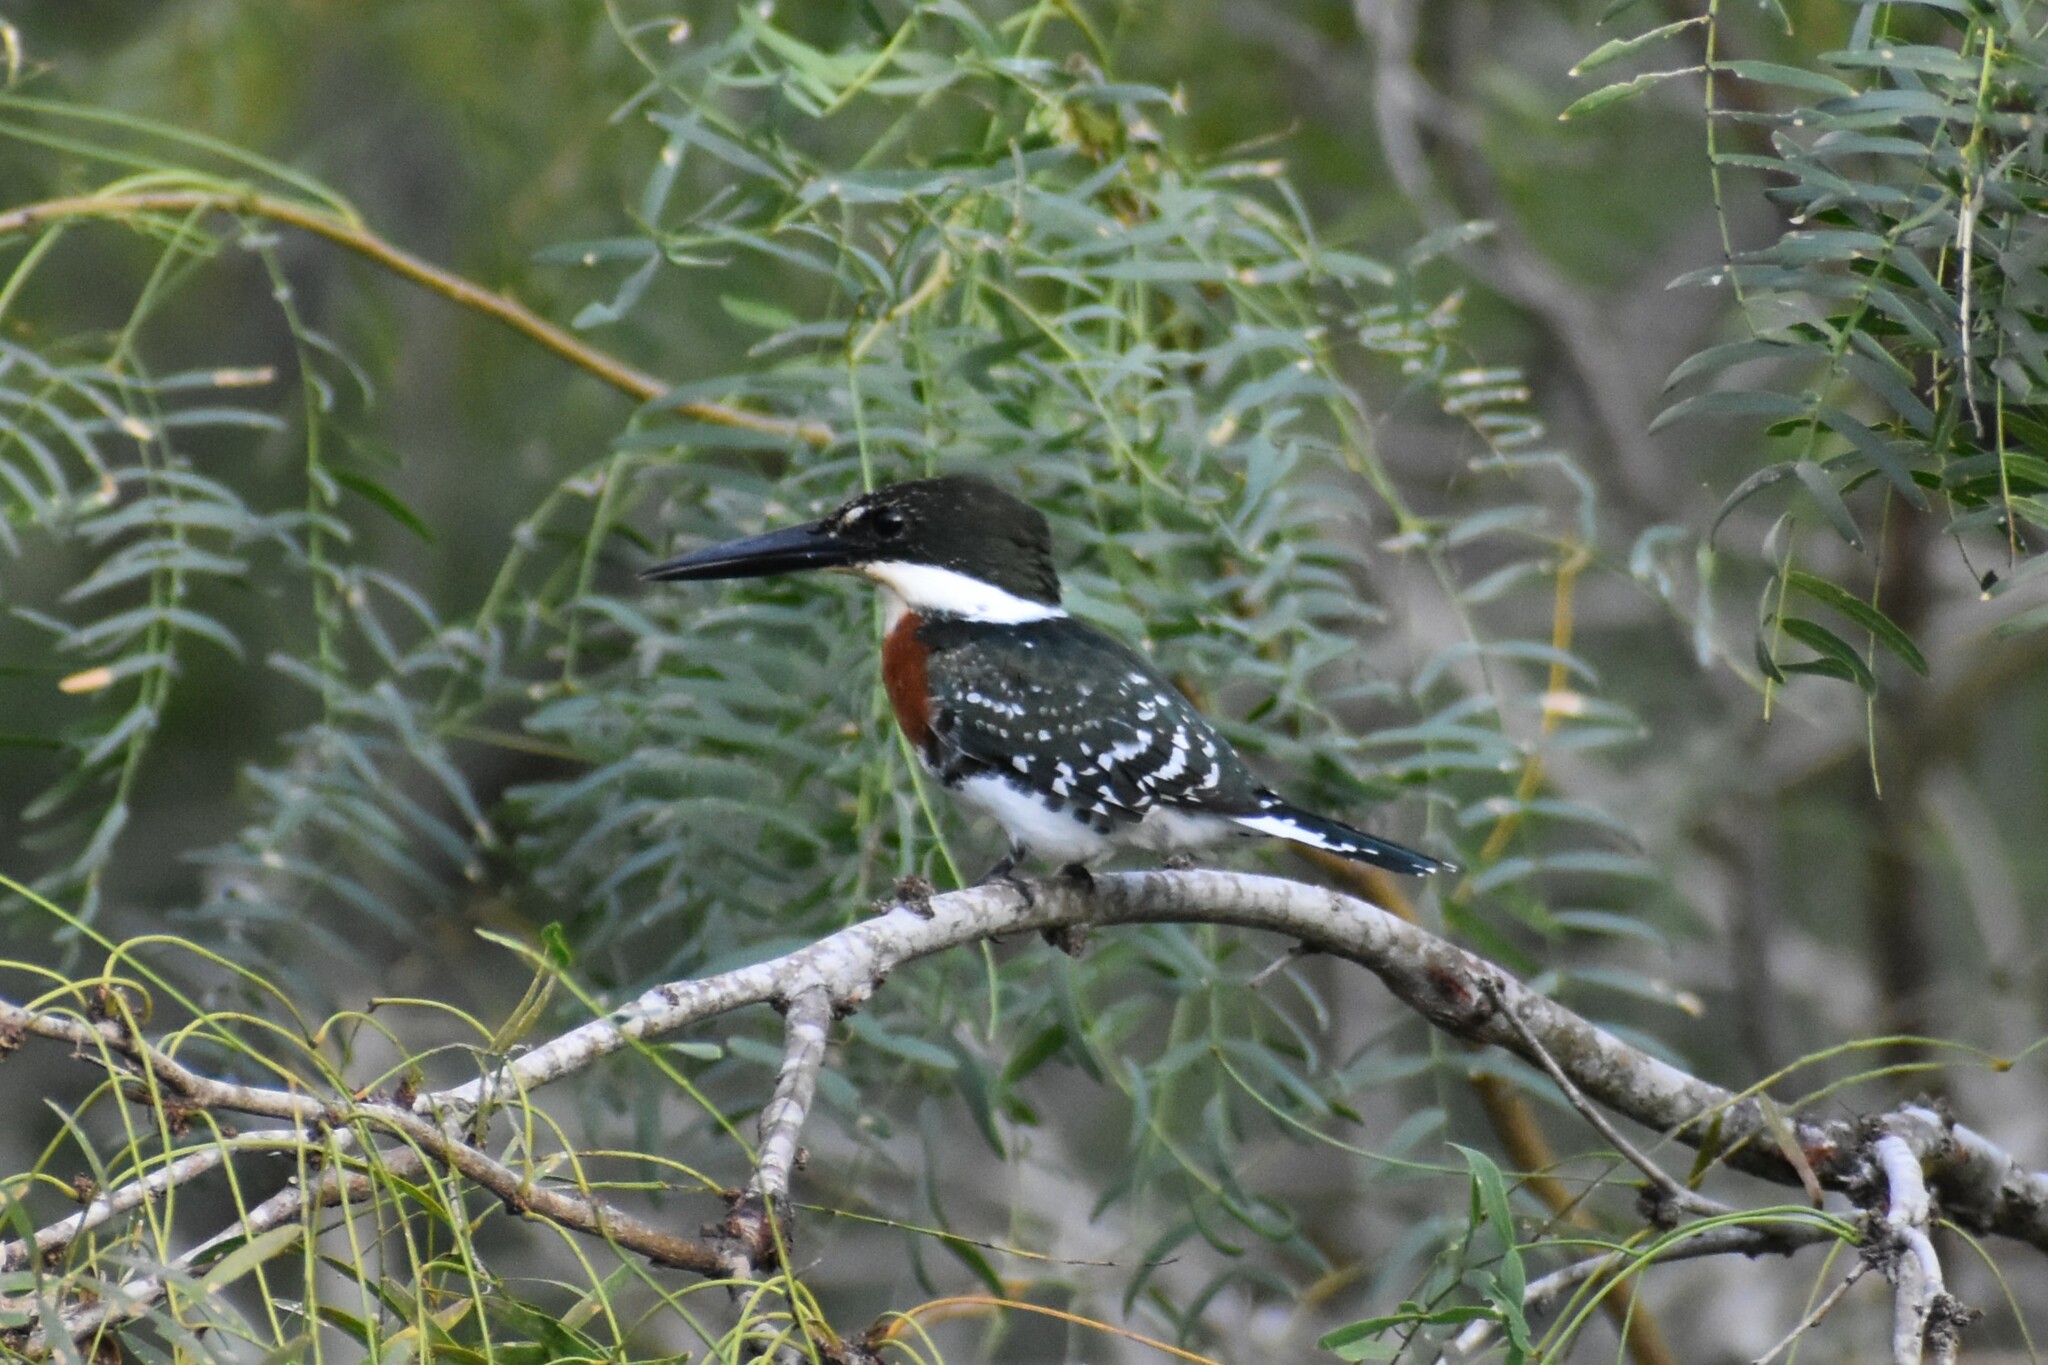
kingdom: Animalia
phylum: Chordata
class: Aves
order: Coraciiformes
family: Alcedinidae
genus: Chloroceryle
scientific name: Chloroceryle americana
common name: Green kingfisher
